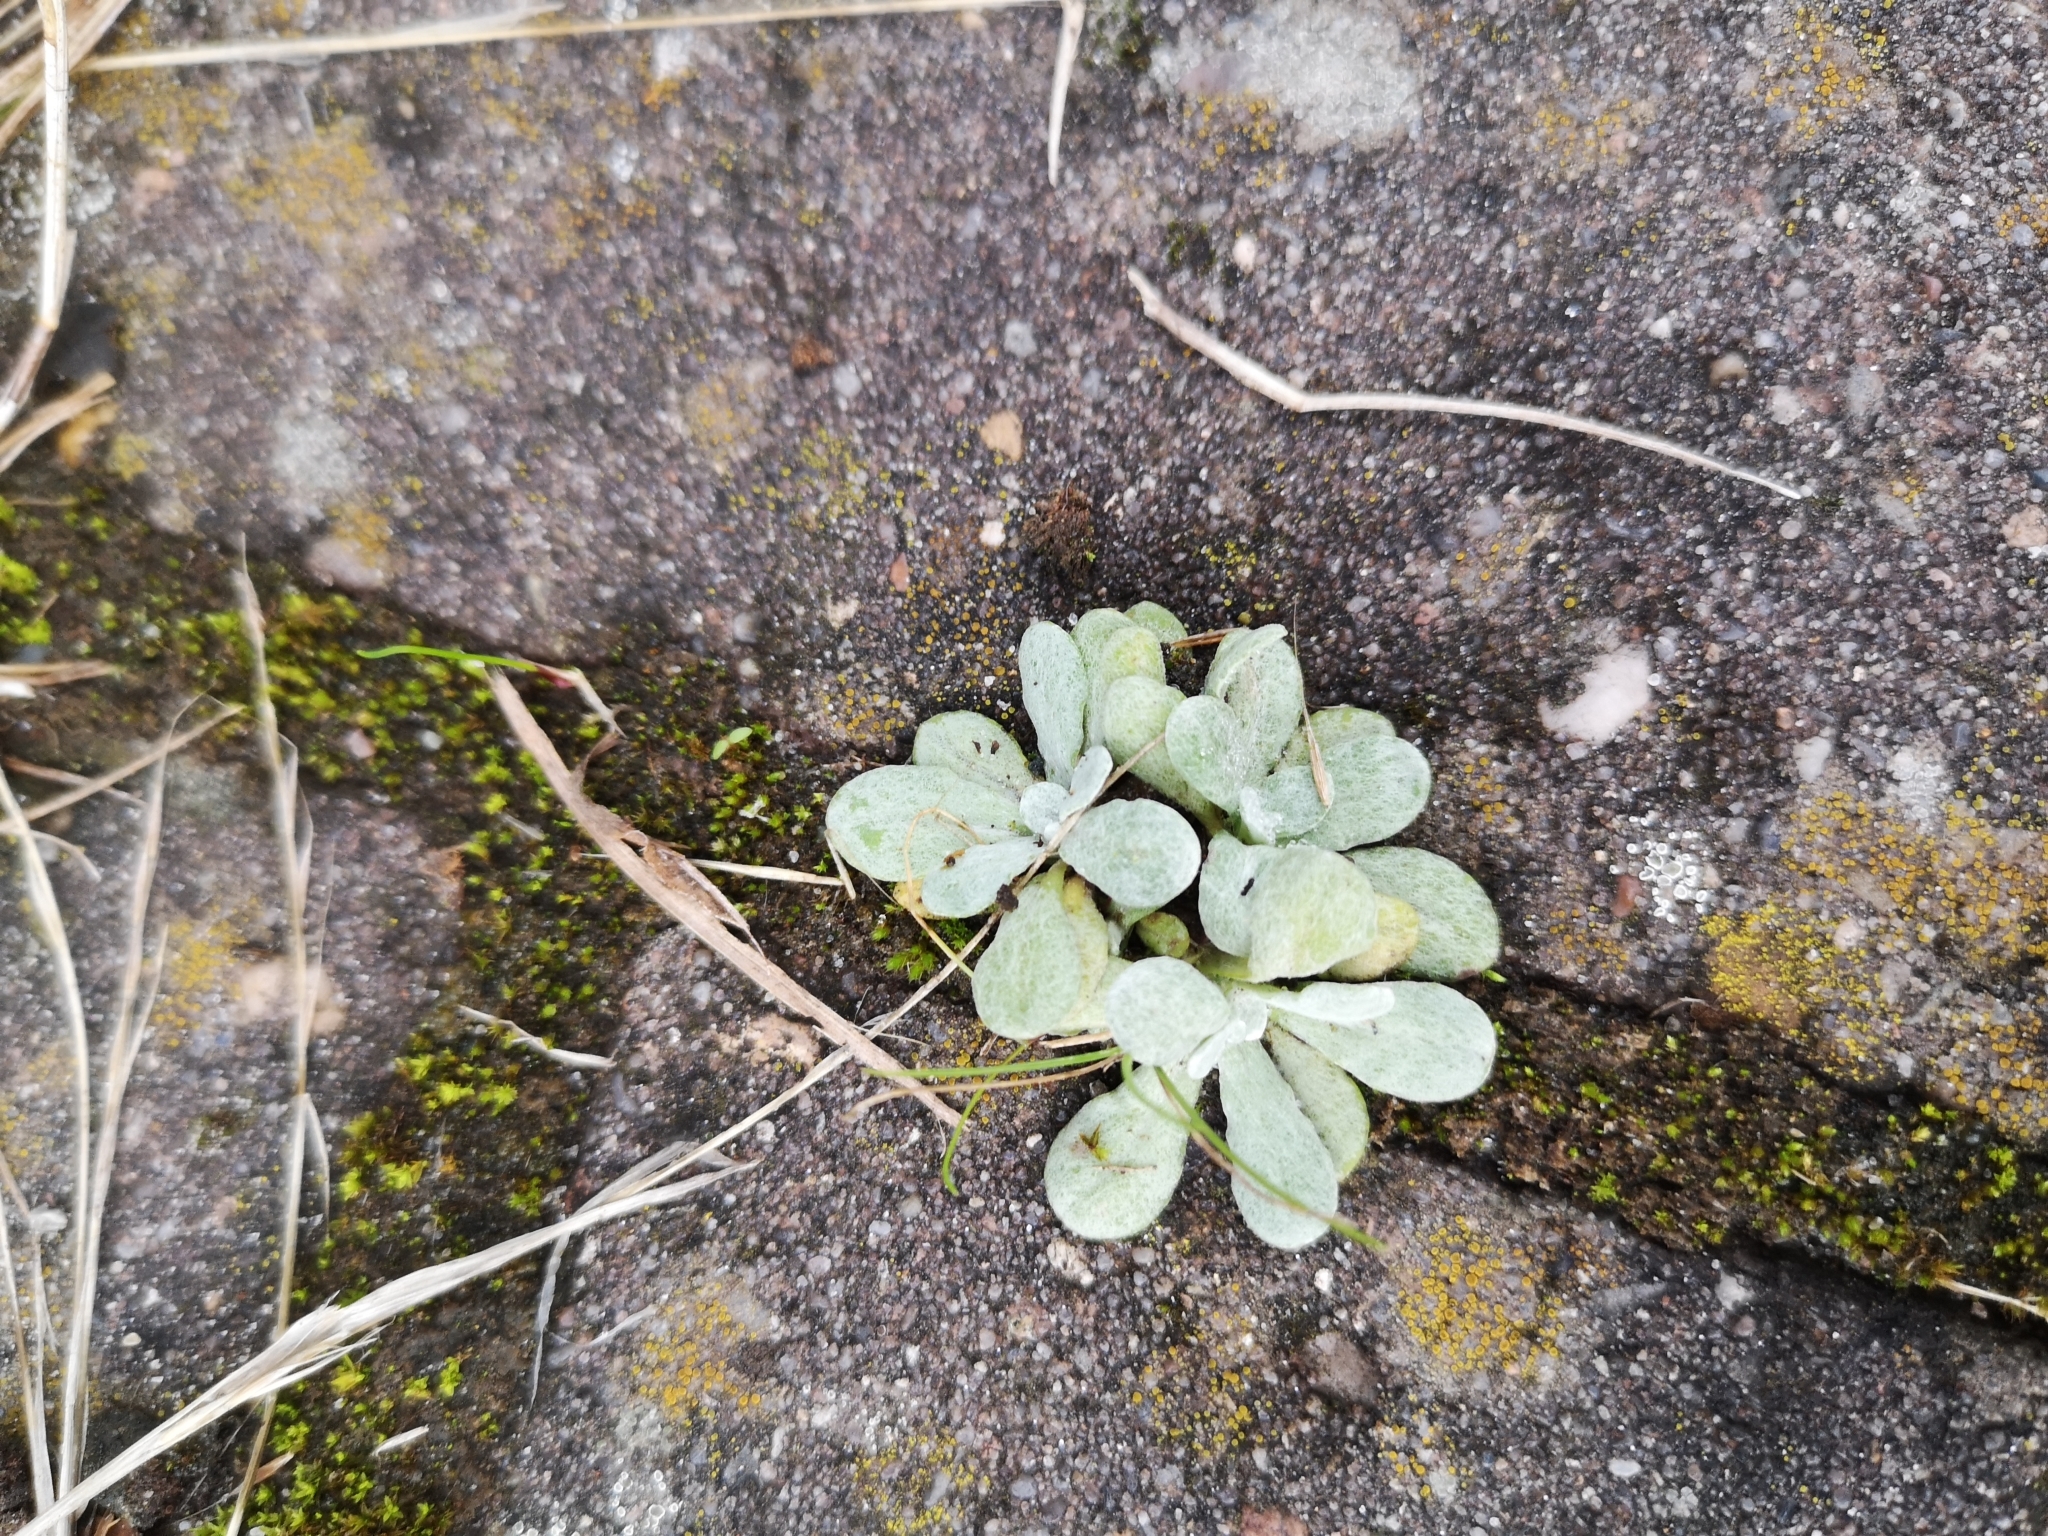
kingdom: Plantae
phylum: Tracheophyta
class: Magnoliopsida
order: Asterales
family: Asteraceae
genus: Helichrysum
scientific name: Helichrysum luteoalbum
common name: Daisy
